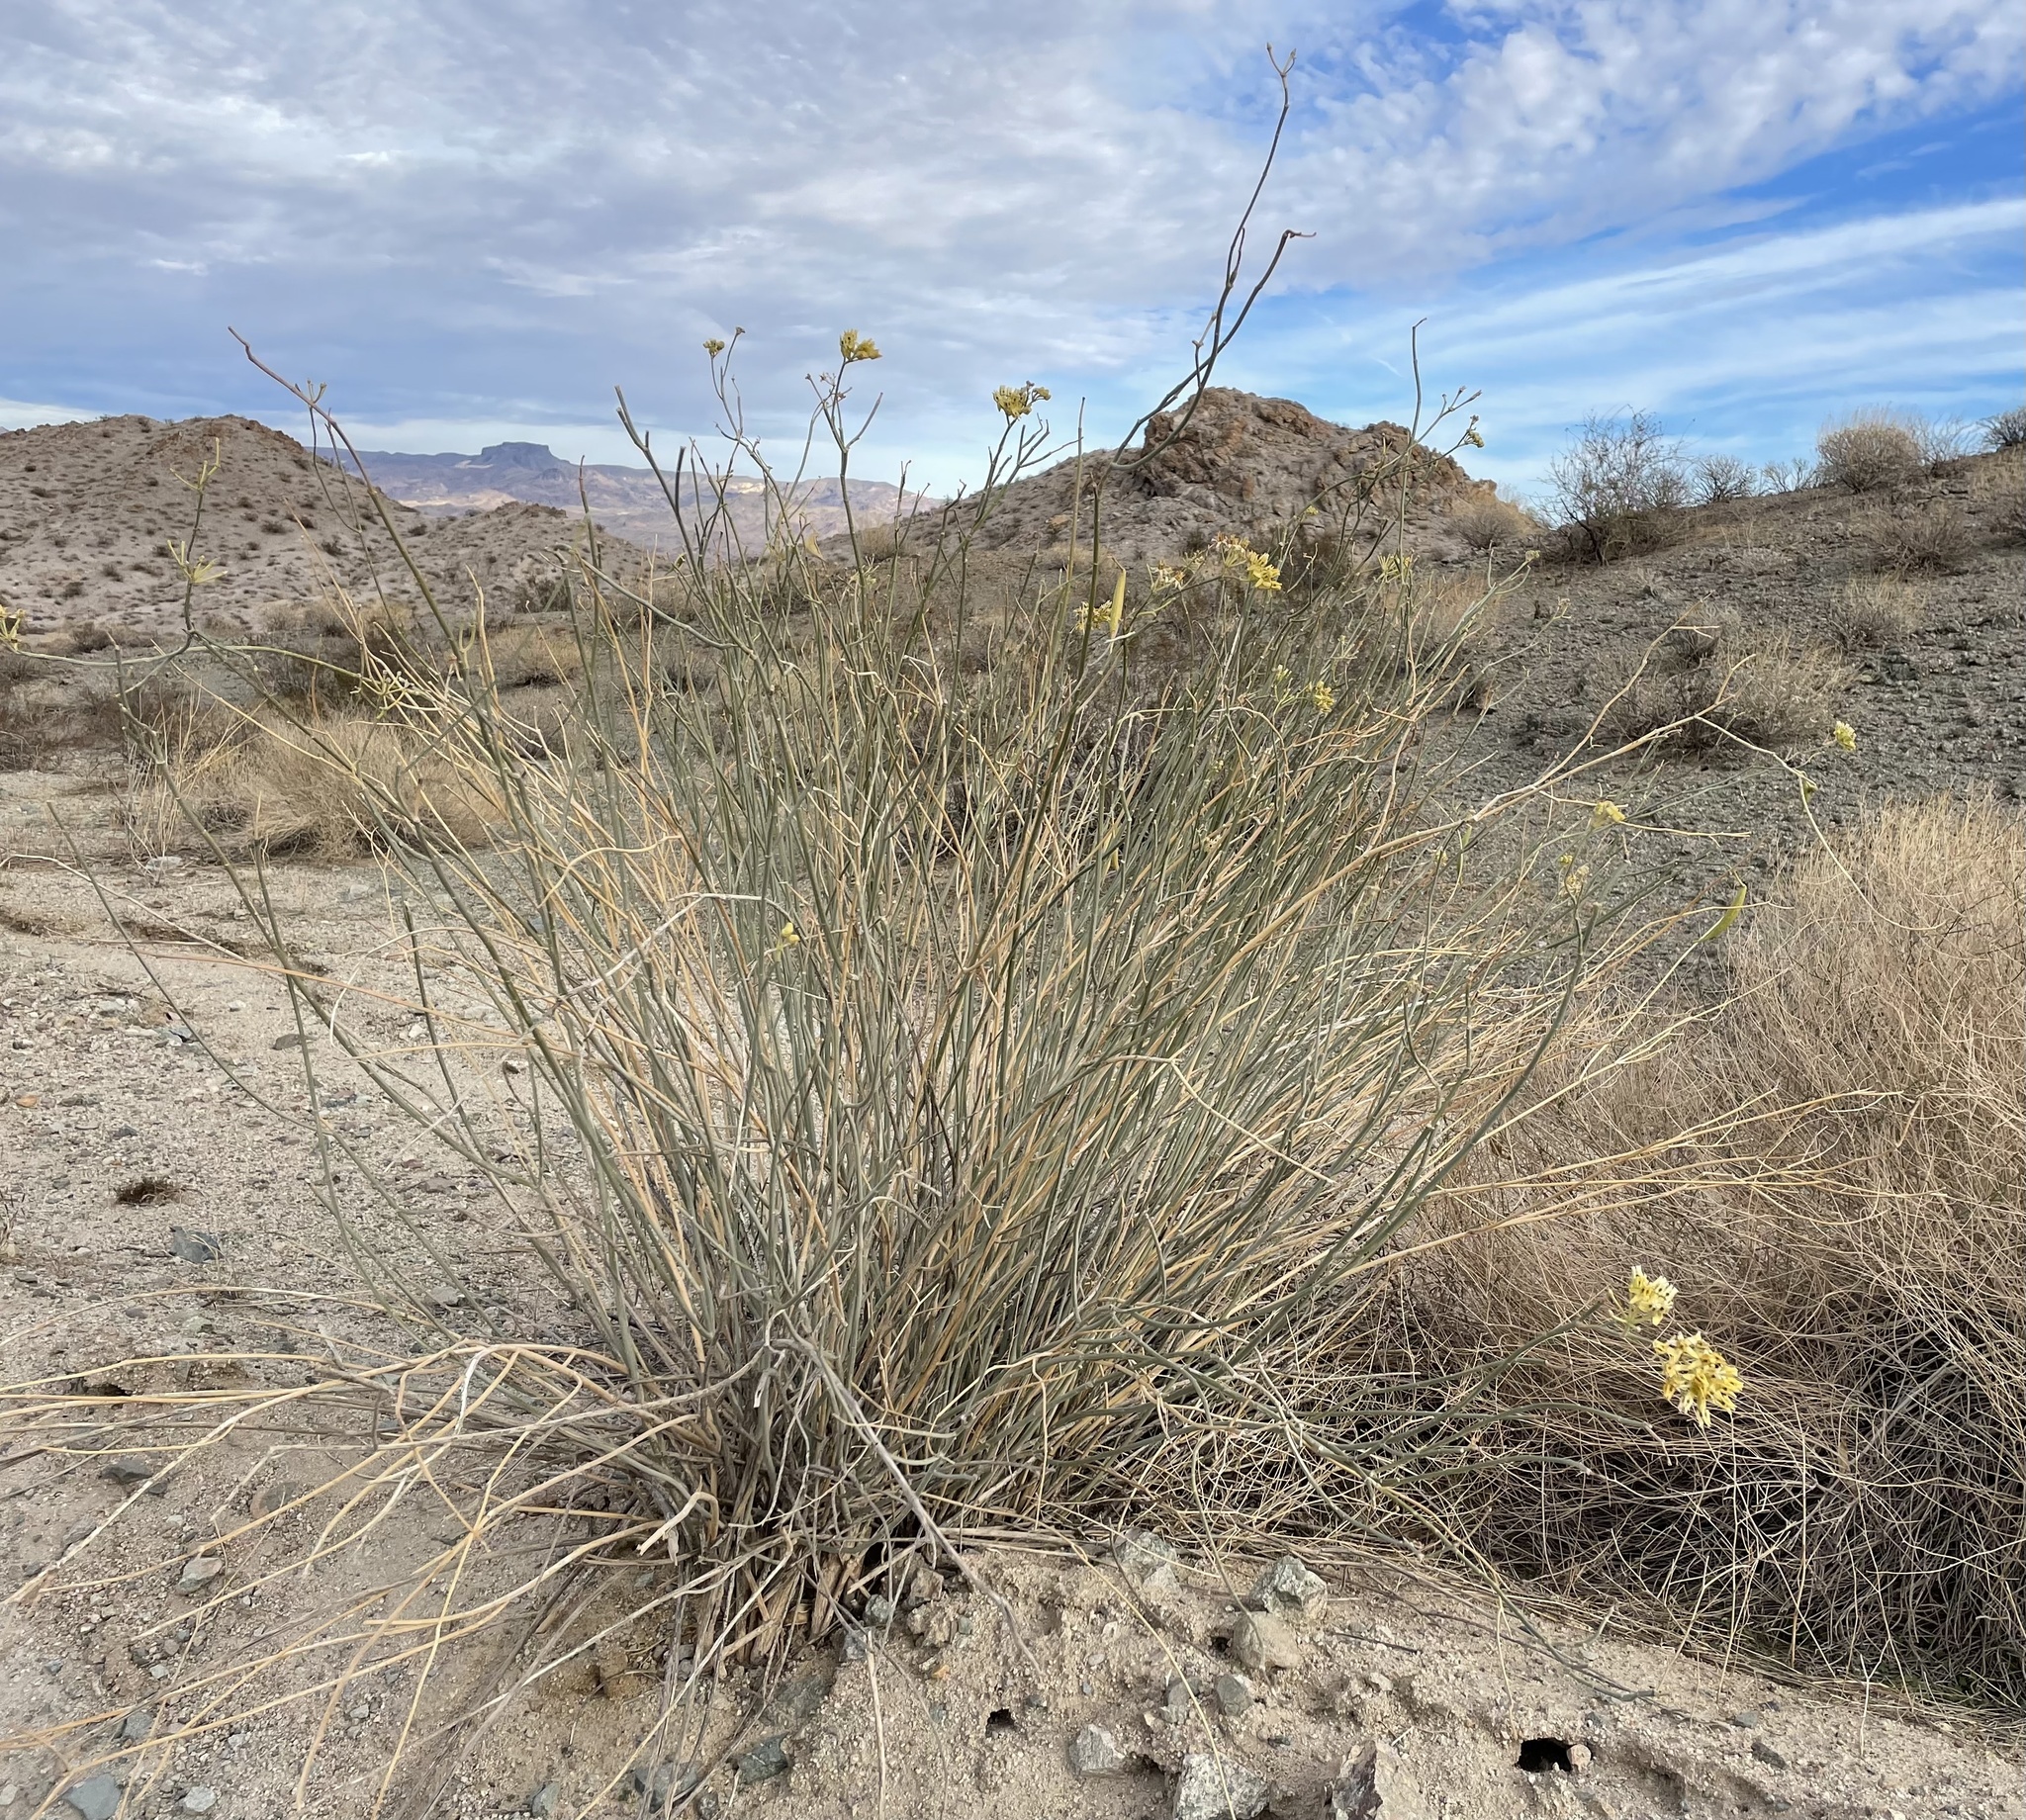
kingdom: Plantae
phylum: Tracheophyta
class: Magnoliopsida
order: Gentianales
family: Apocynaceae
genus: Asclepias
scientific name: Asclepias subulata
